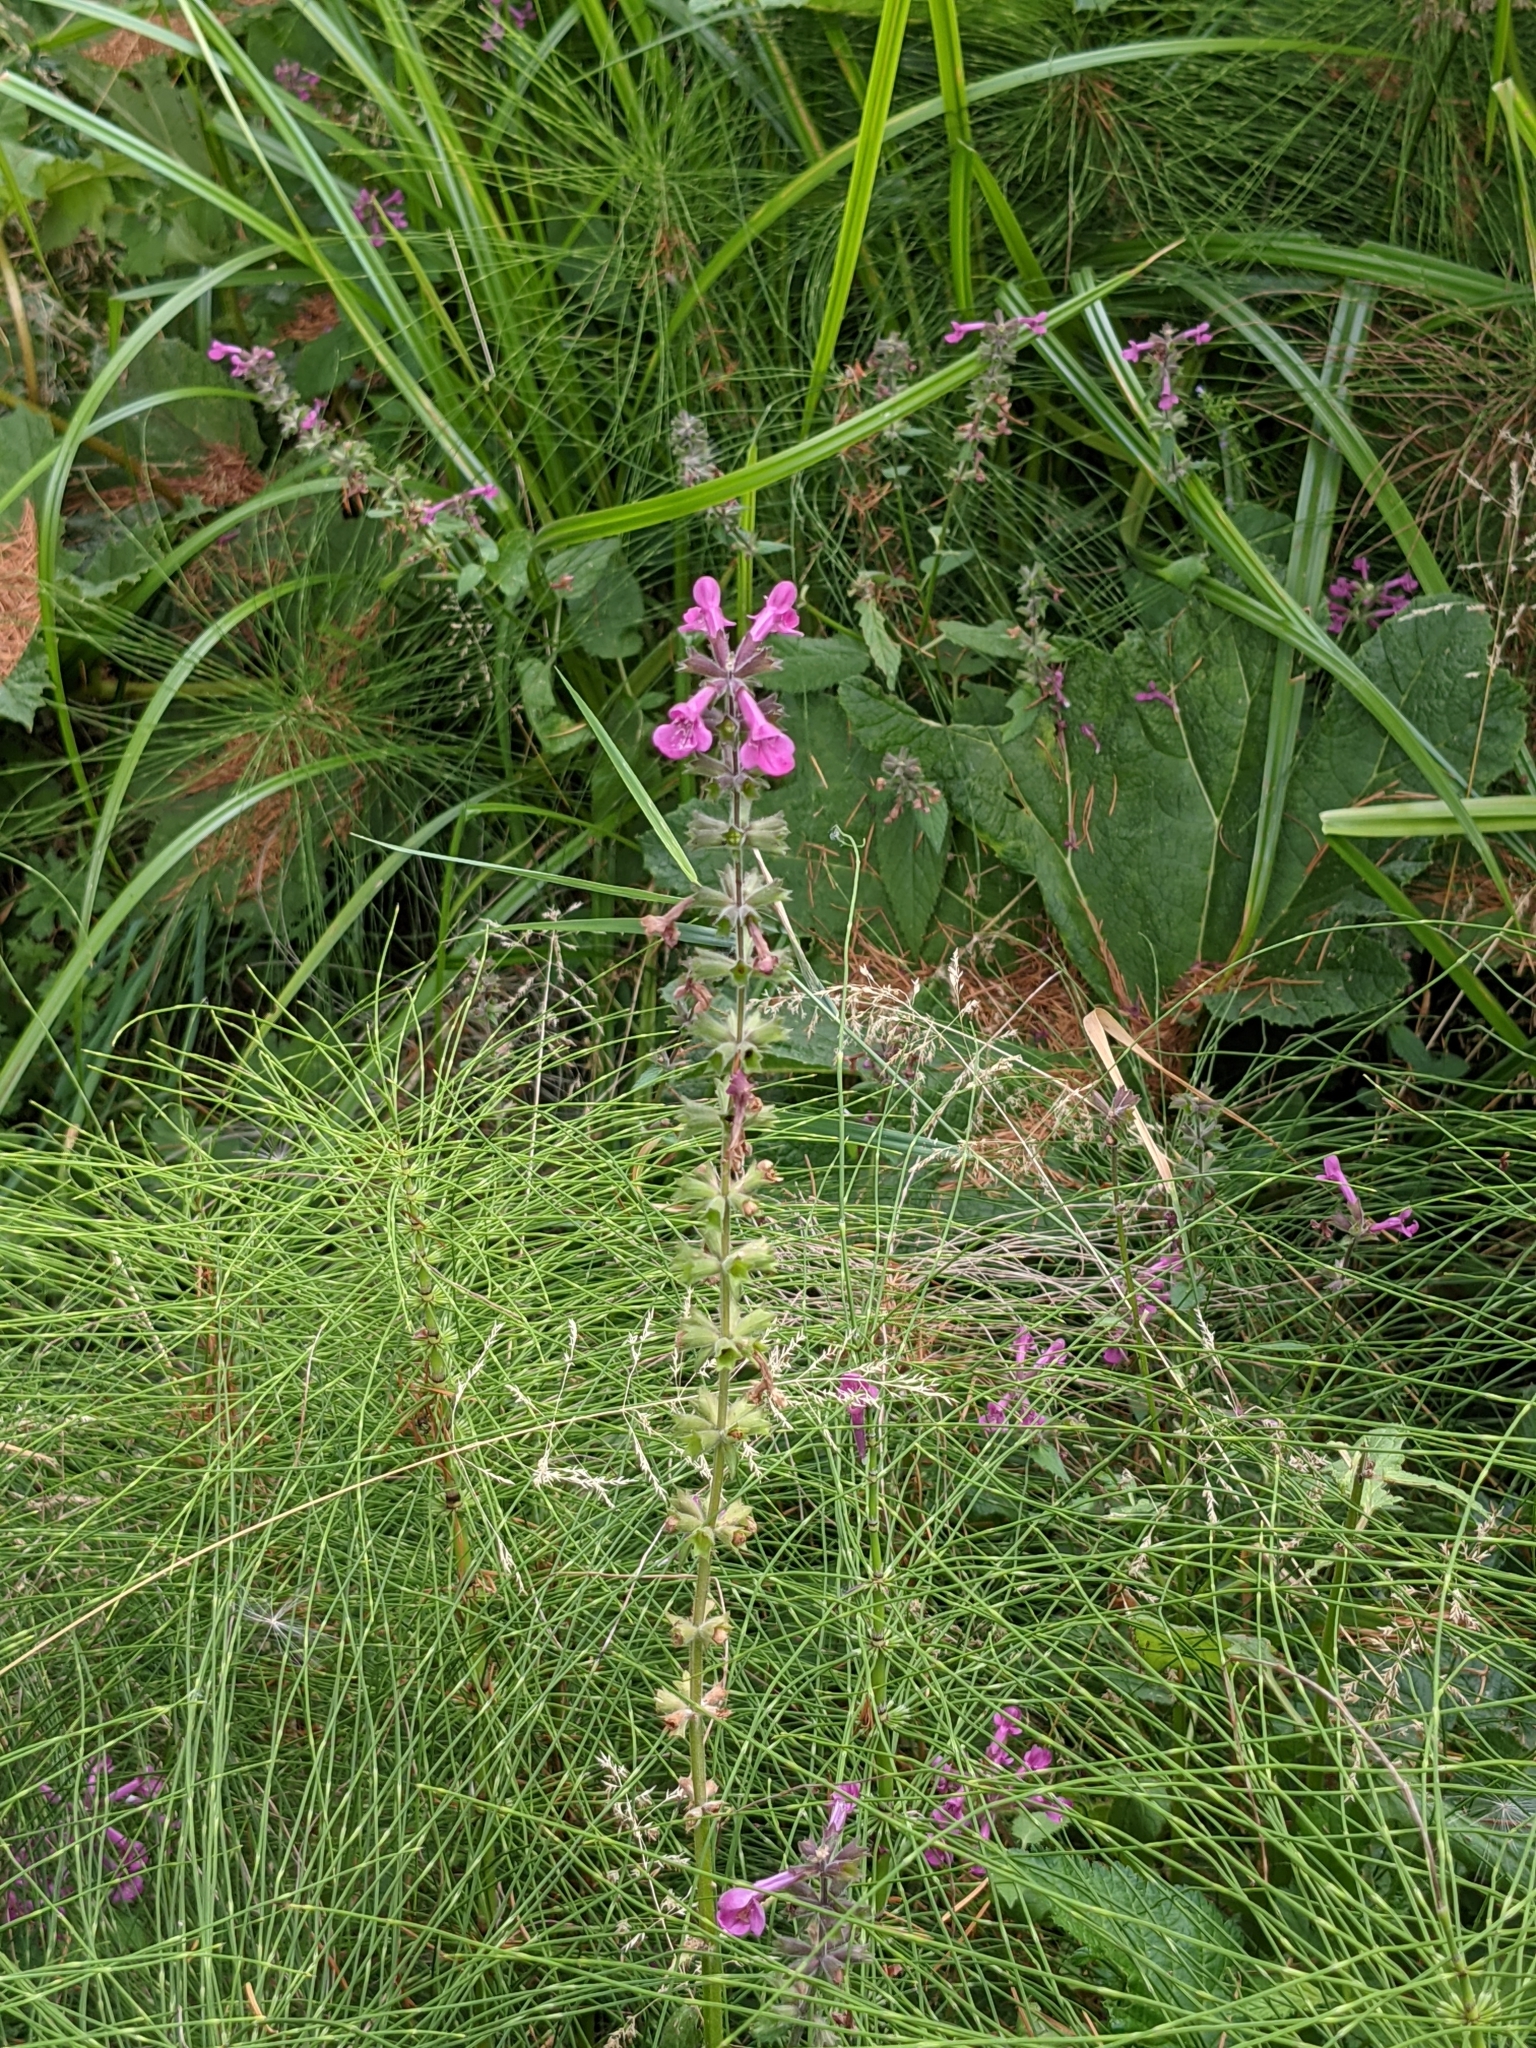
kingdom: Plantae
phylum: Tracheophyta
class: Magnoliopsida
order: Lamiales
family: Lamiaceae
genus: Stachys
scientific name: Stachys chamissonis
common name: Coastal hedge-nettle
